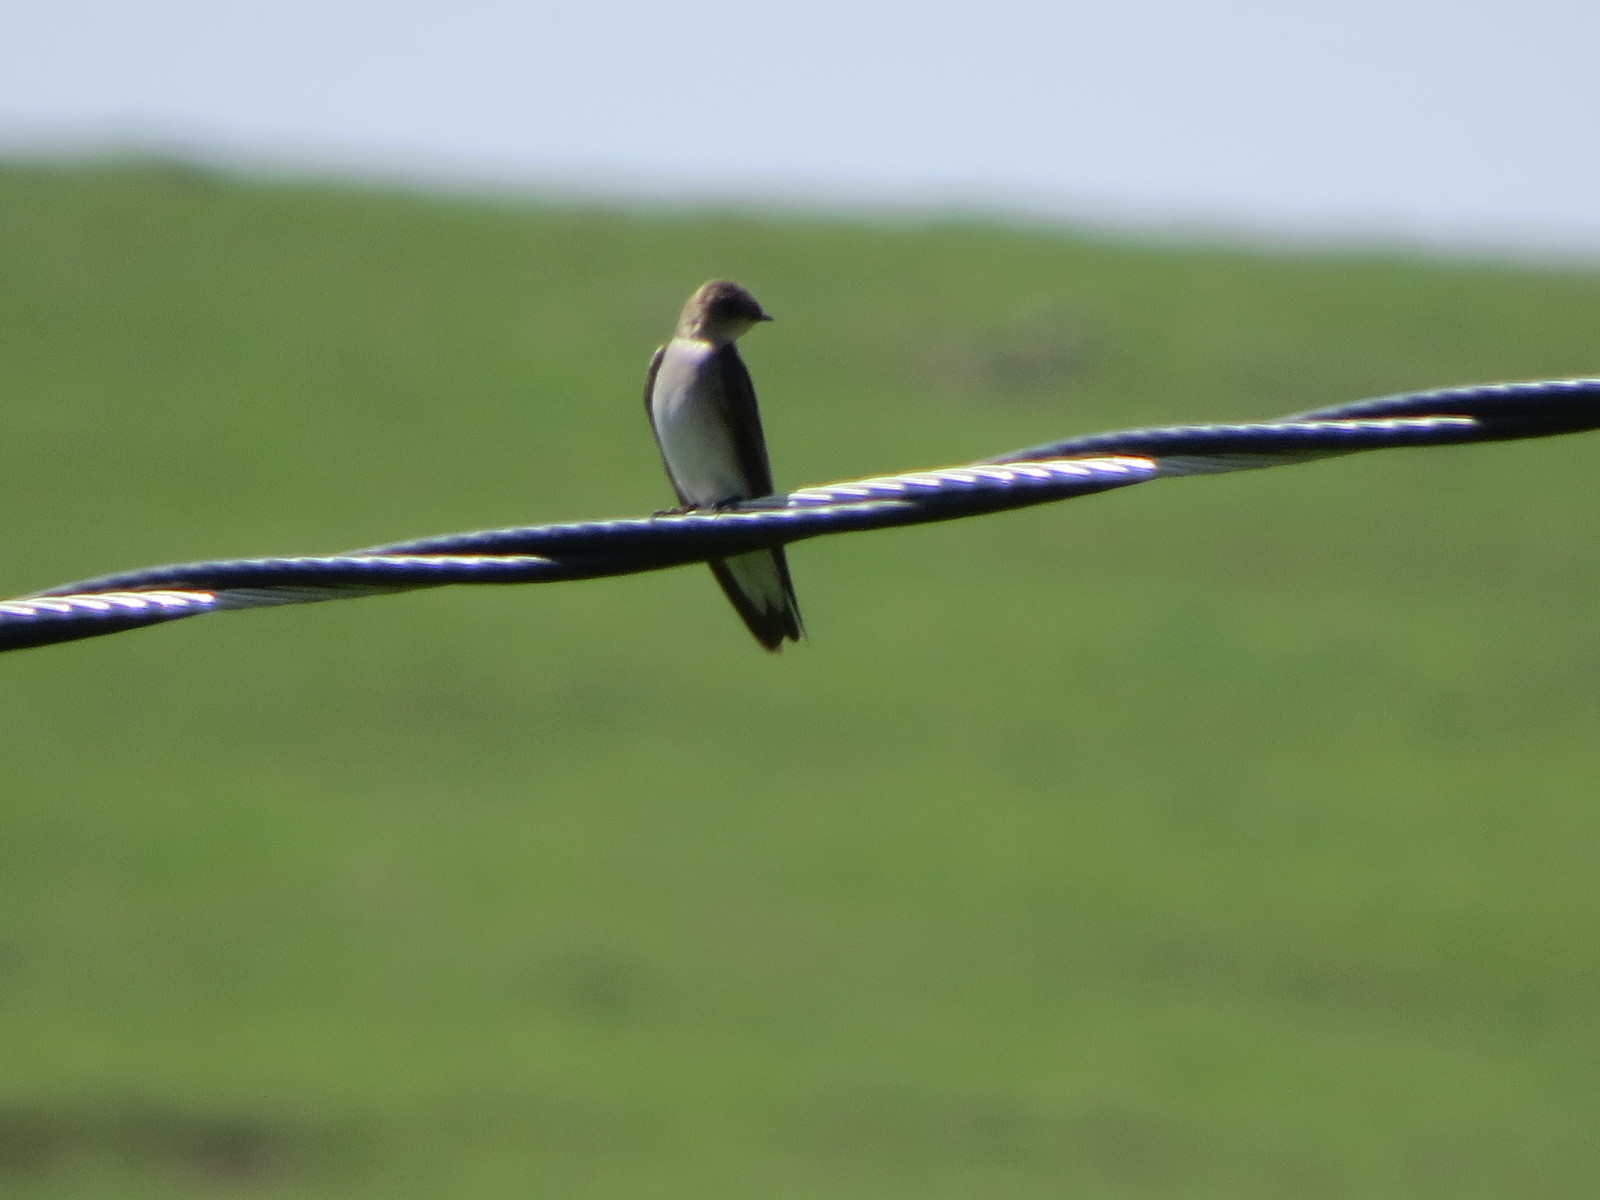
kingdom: Animalia
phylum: Chordata
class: Aves
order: Passeriformes
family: Hirundinidae
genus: Stelgidopteryx
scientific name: Stelgidopteryx serripennis
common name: Northern rough-winged swallow
